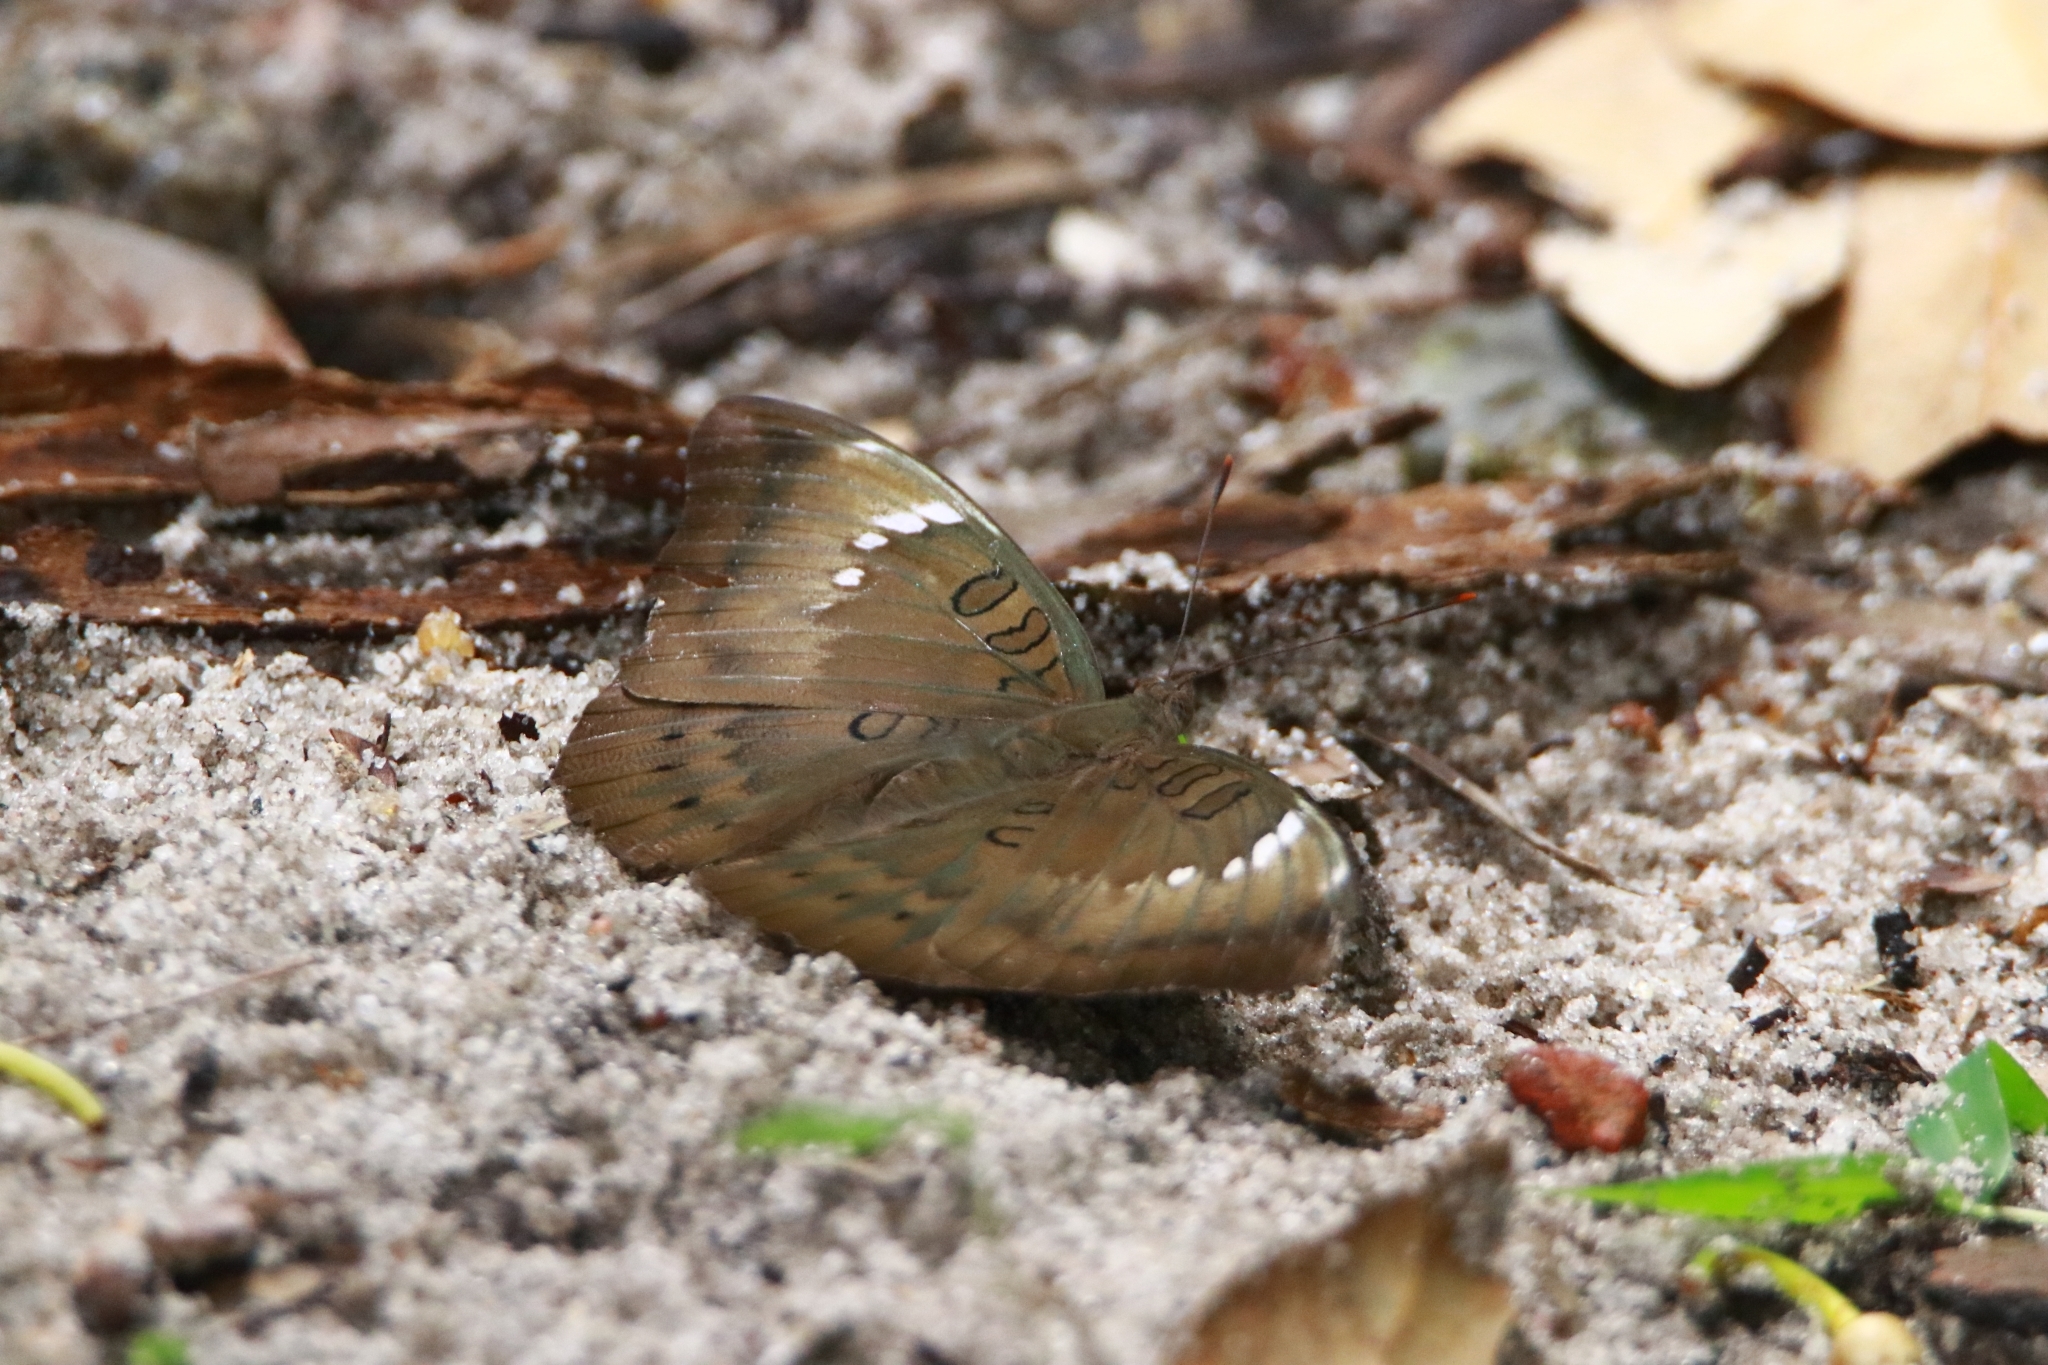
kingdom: Animalia
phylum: Arthropoda
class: Insecta
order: Lepidoptera
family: Nymphalidae
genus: Euthalia
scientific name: Euthalia aconthea
